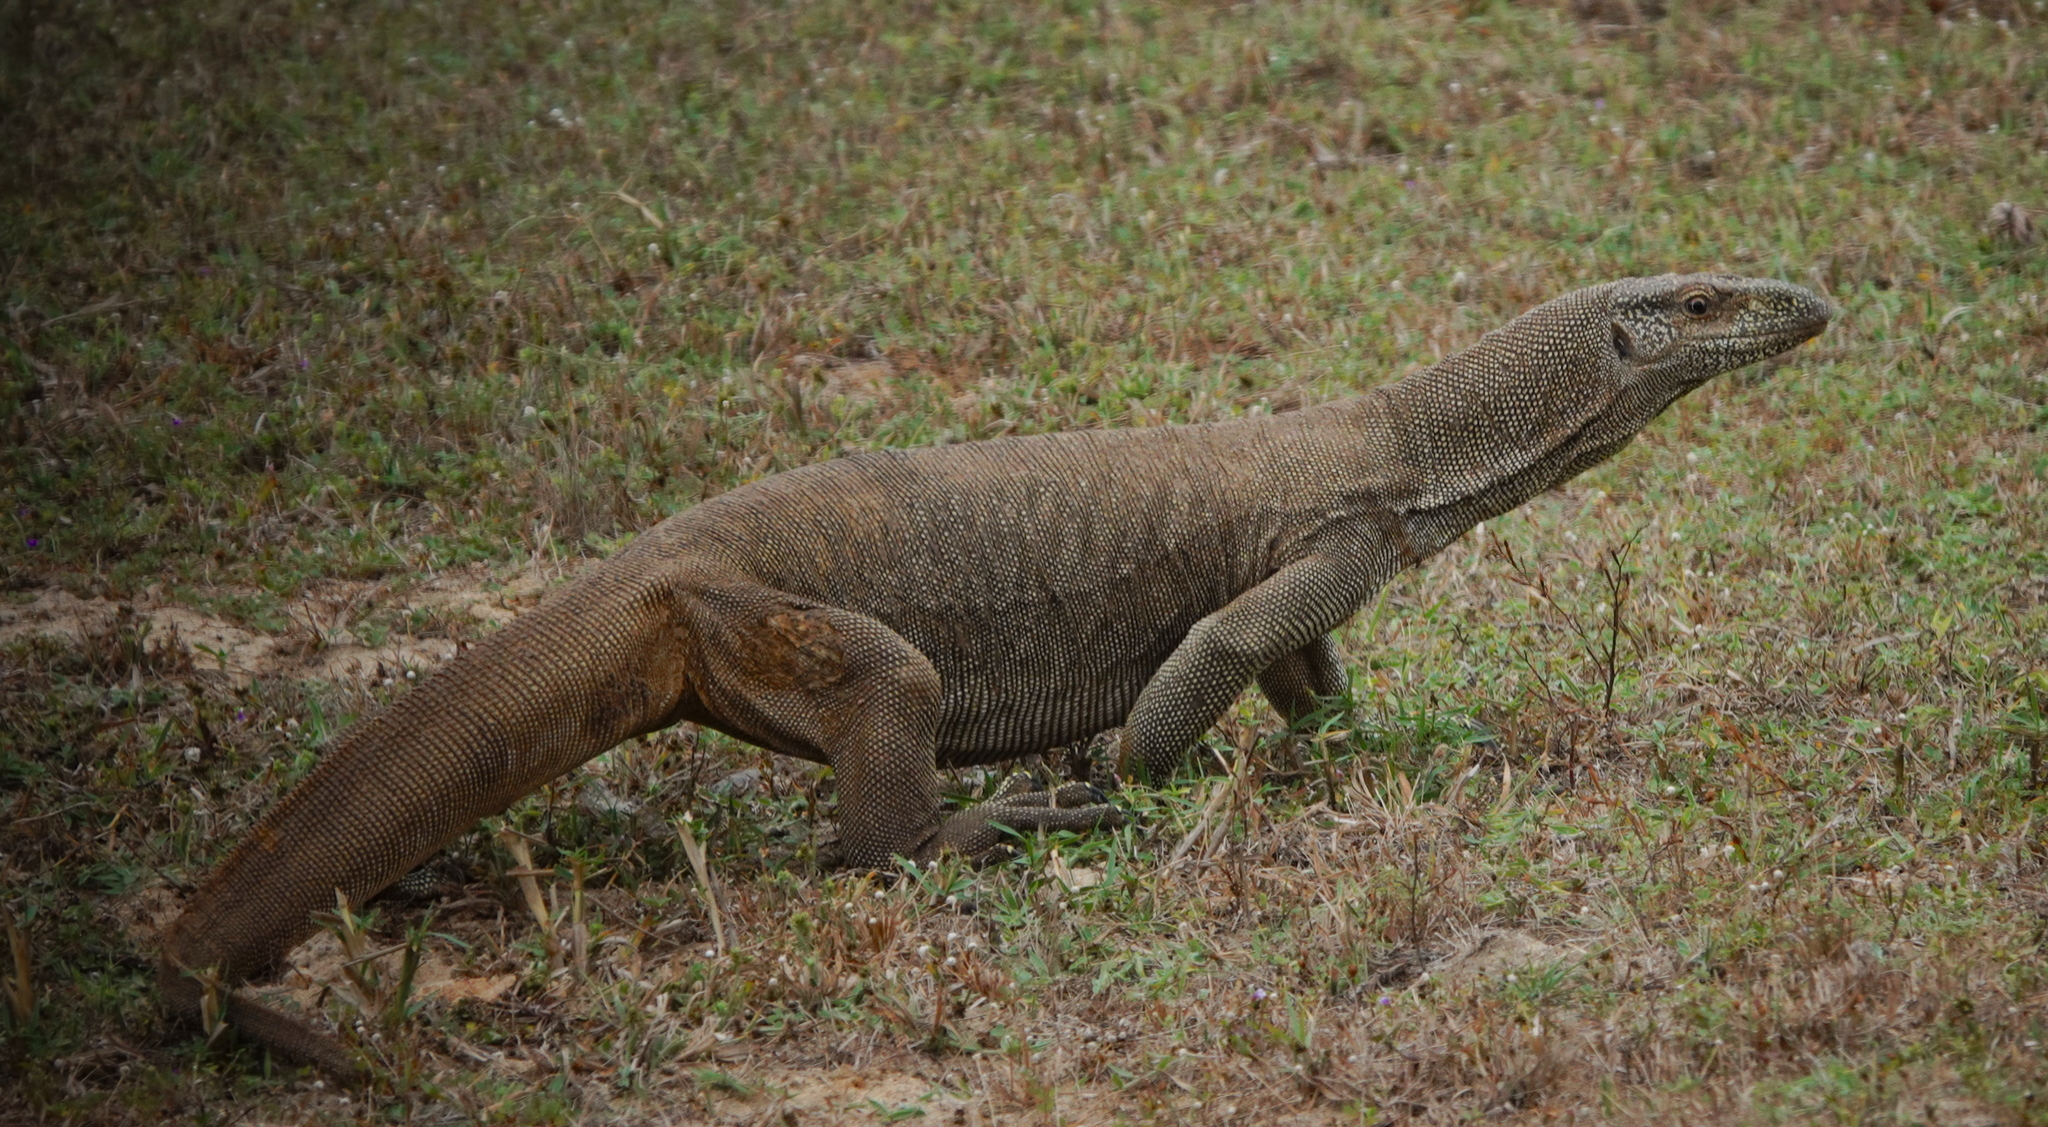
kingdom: Animalia
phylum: Chordata
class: Squamata
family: Varanidae
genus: Varanus
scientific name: Varanus bengalensis
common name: Bengal monitor
